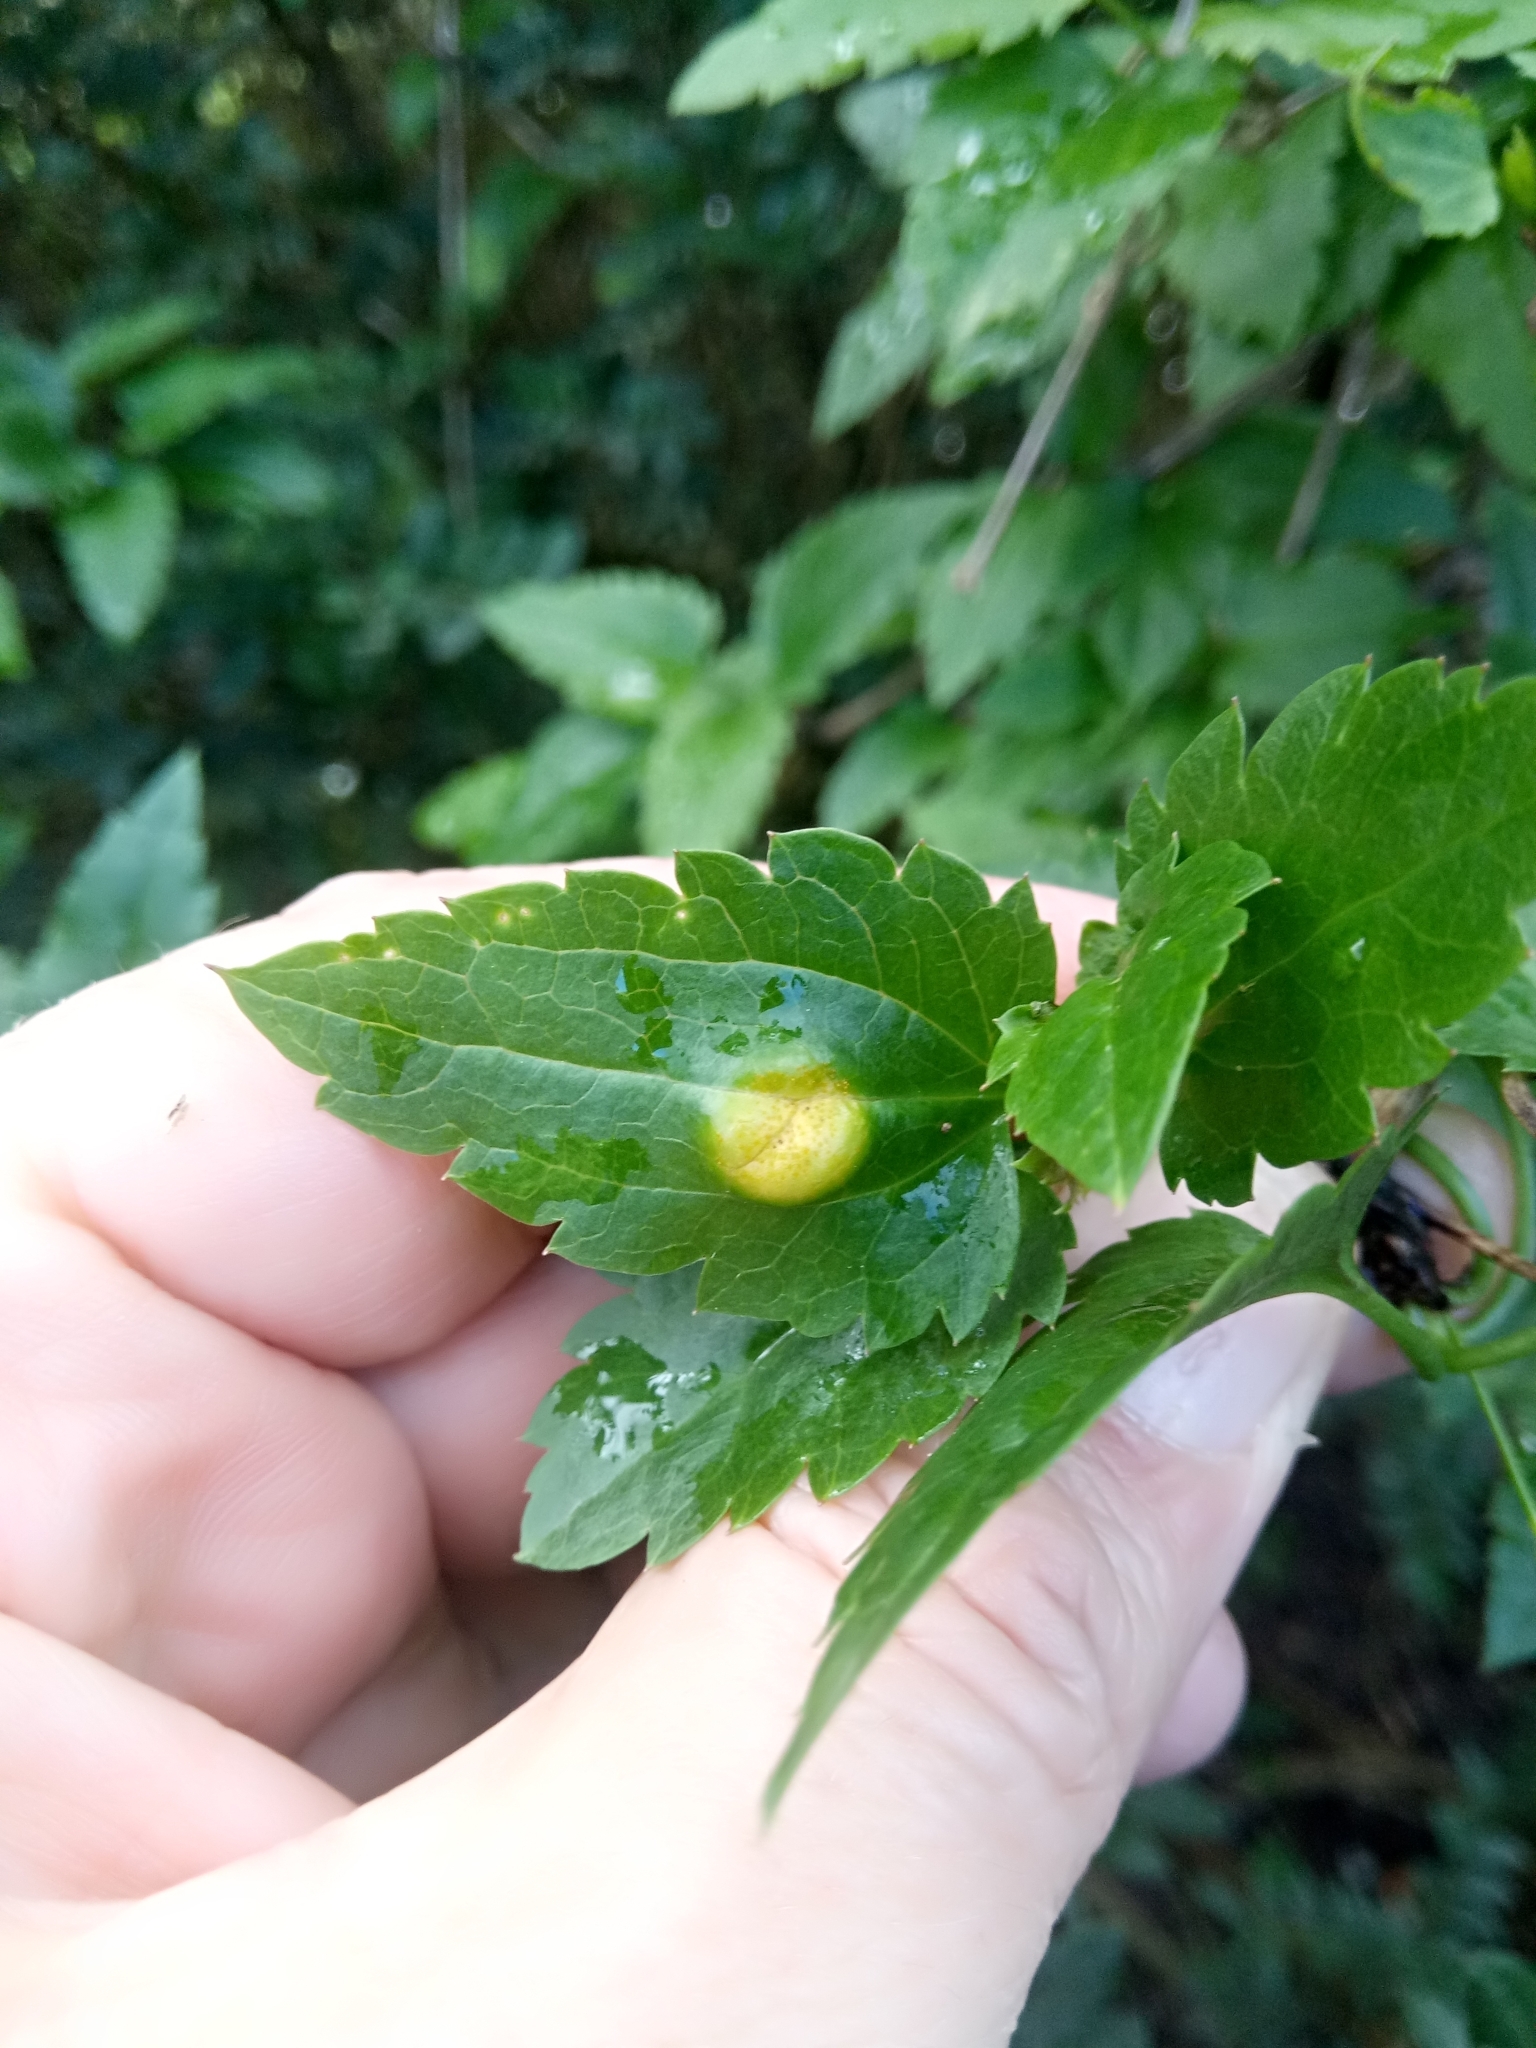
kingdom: Plantae
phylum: Tracheophyta
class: Magnoliopsida
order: Ranunculales
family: Ranunculaceae
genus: Clematis
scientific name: Clematis cirrhosa
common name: Early virgin's-bower
